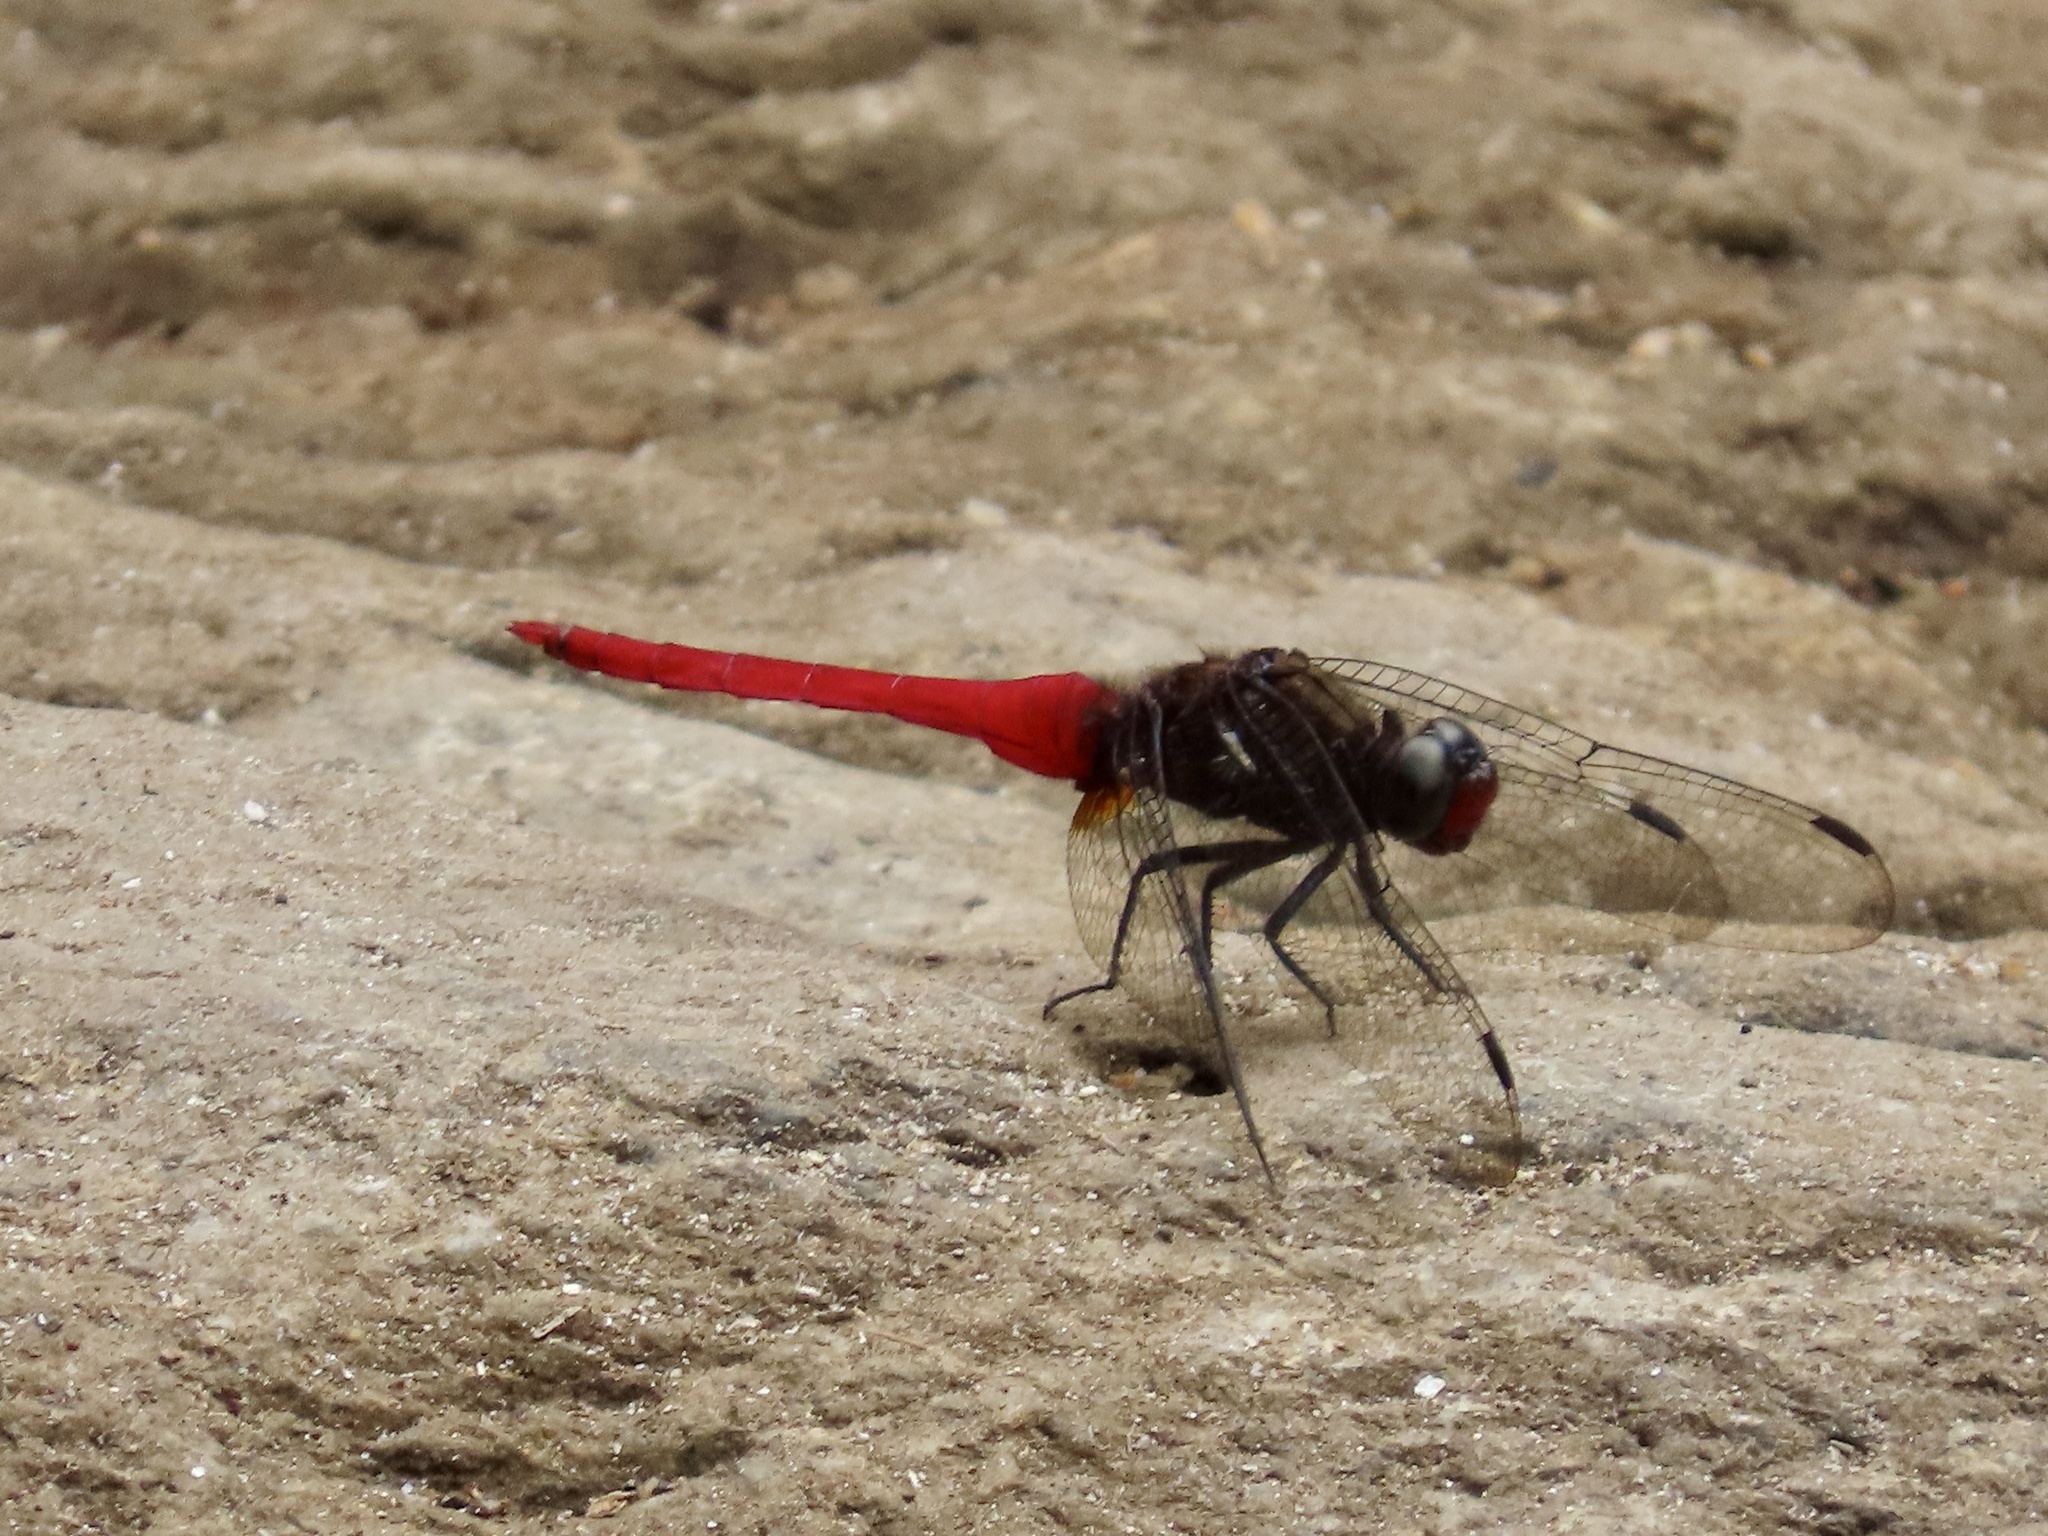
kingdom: Animalia
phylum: Arthropoda
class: Insecta
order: Odonata
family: Libellulidae
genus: Orthetrum
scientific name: Orthetrum chrysis
